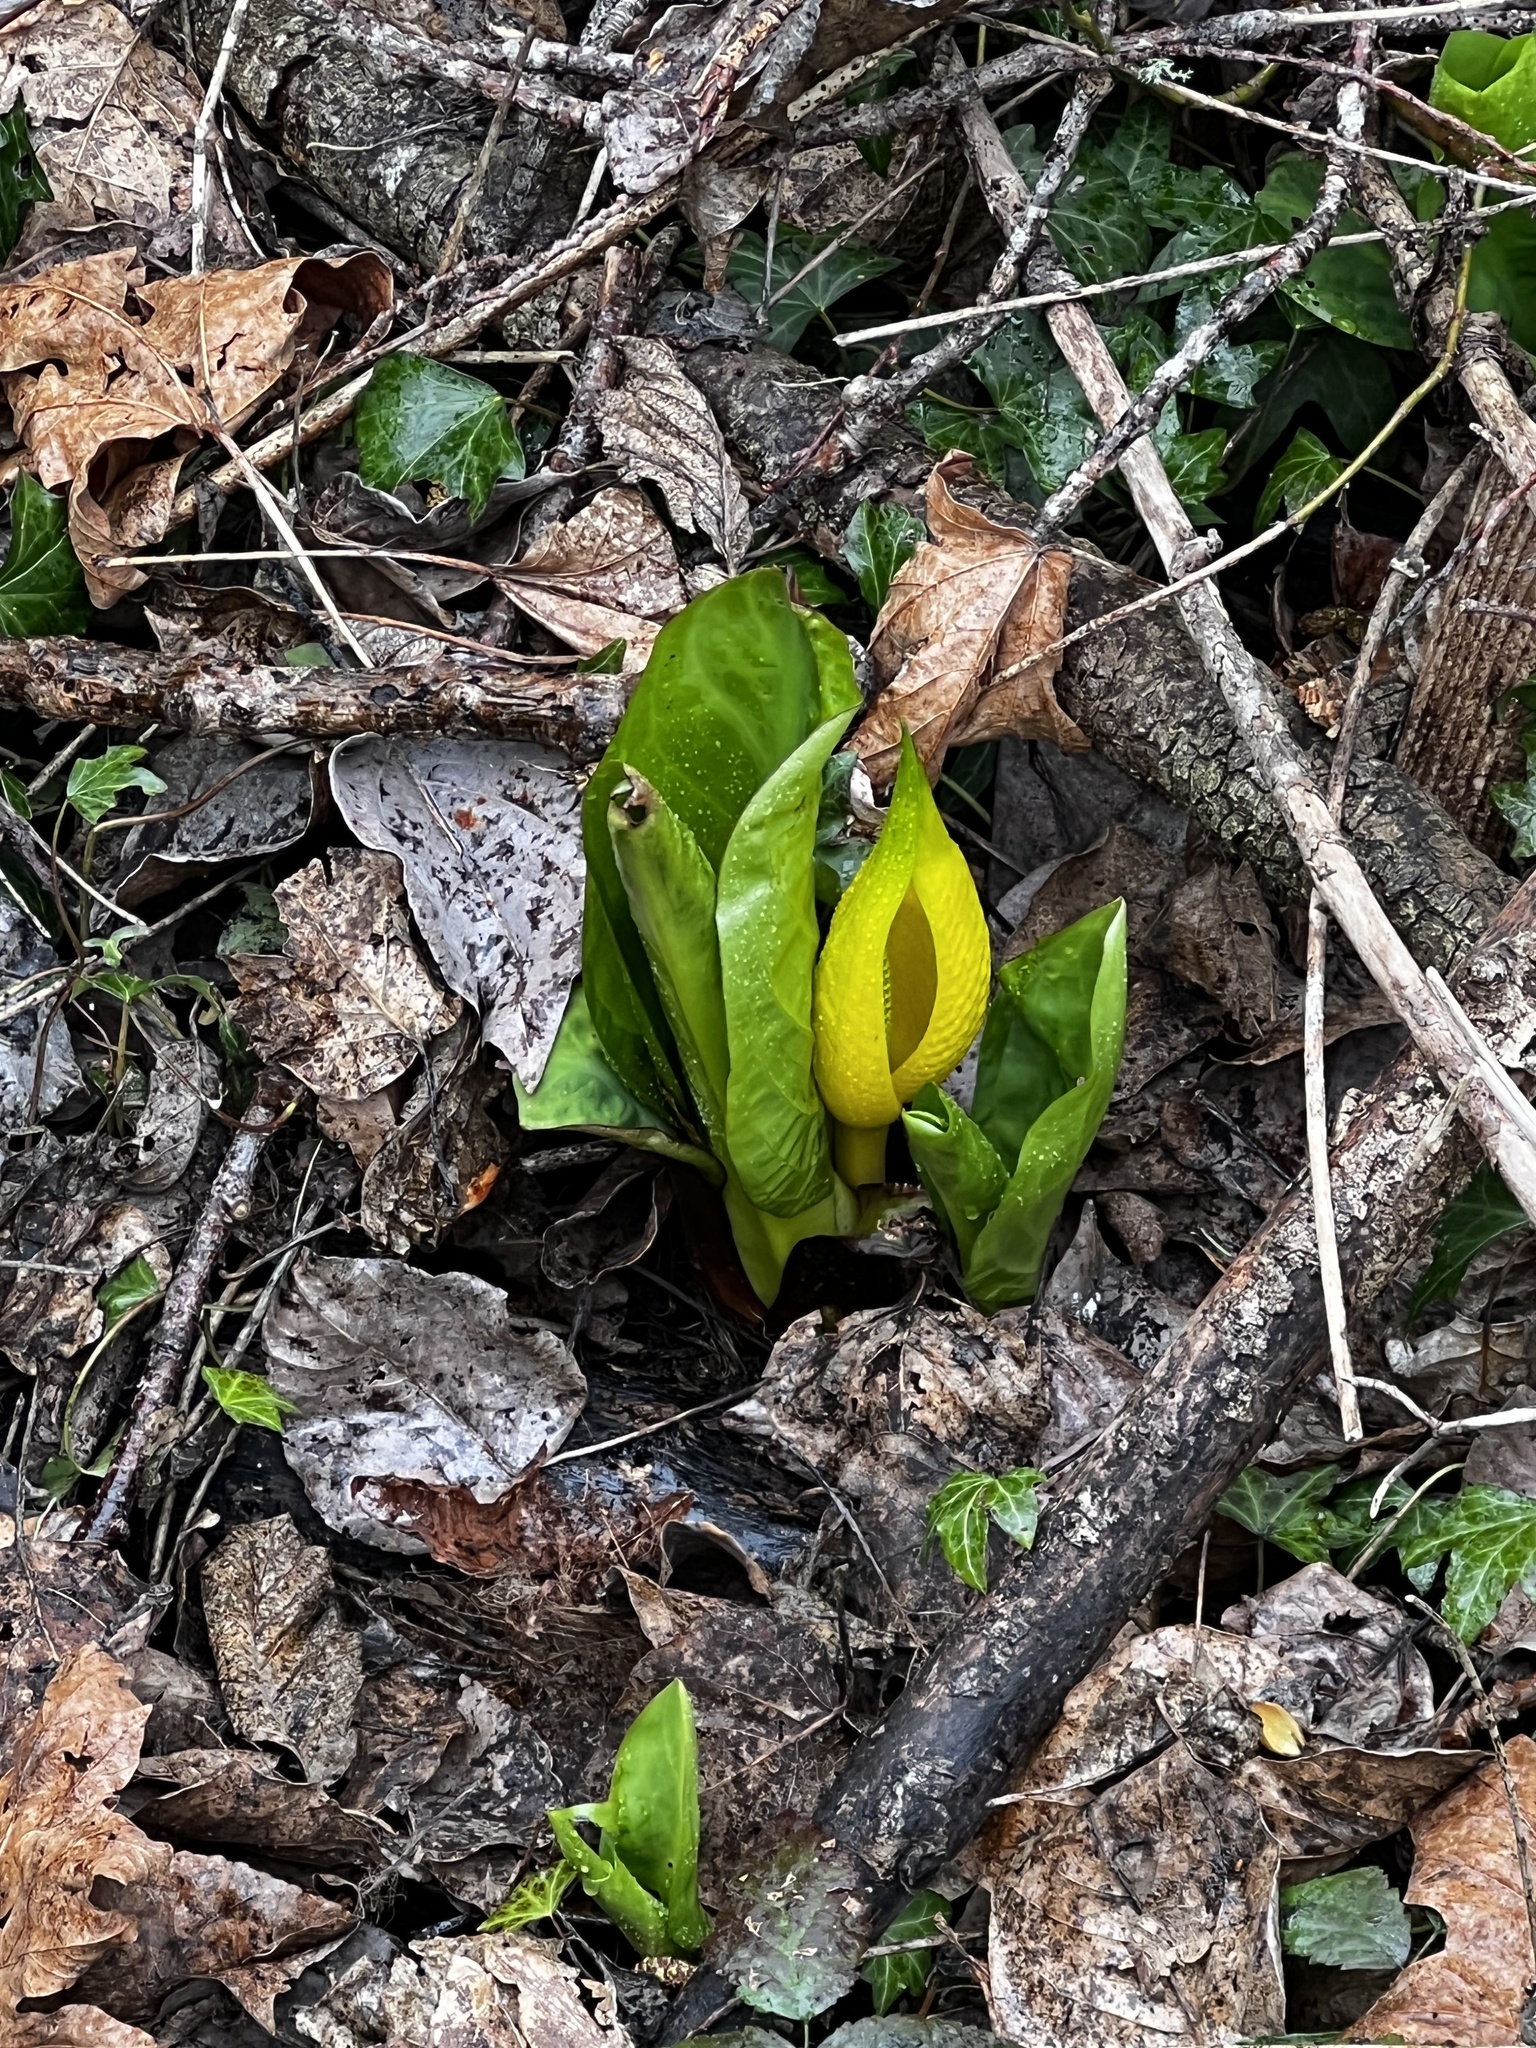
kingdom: Plantae
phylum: Tracheophyta
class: Liliopsida
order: Alismatales
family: Araceae
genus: Lysichiton
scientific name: Lysichiton americanus
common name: American skunk cabbage
